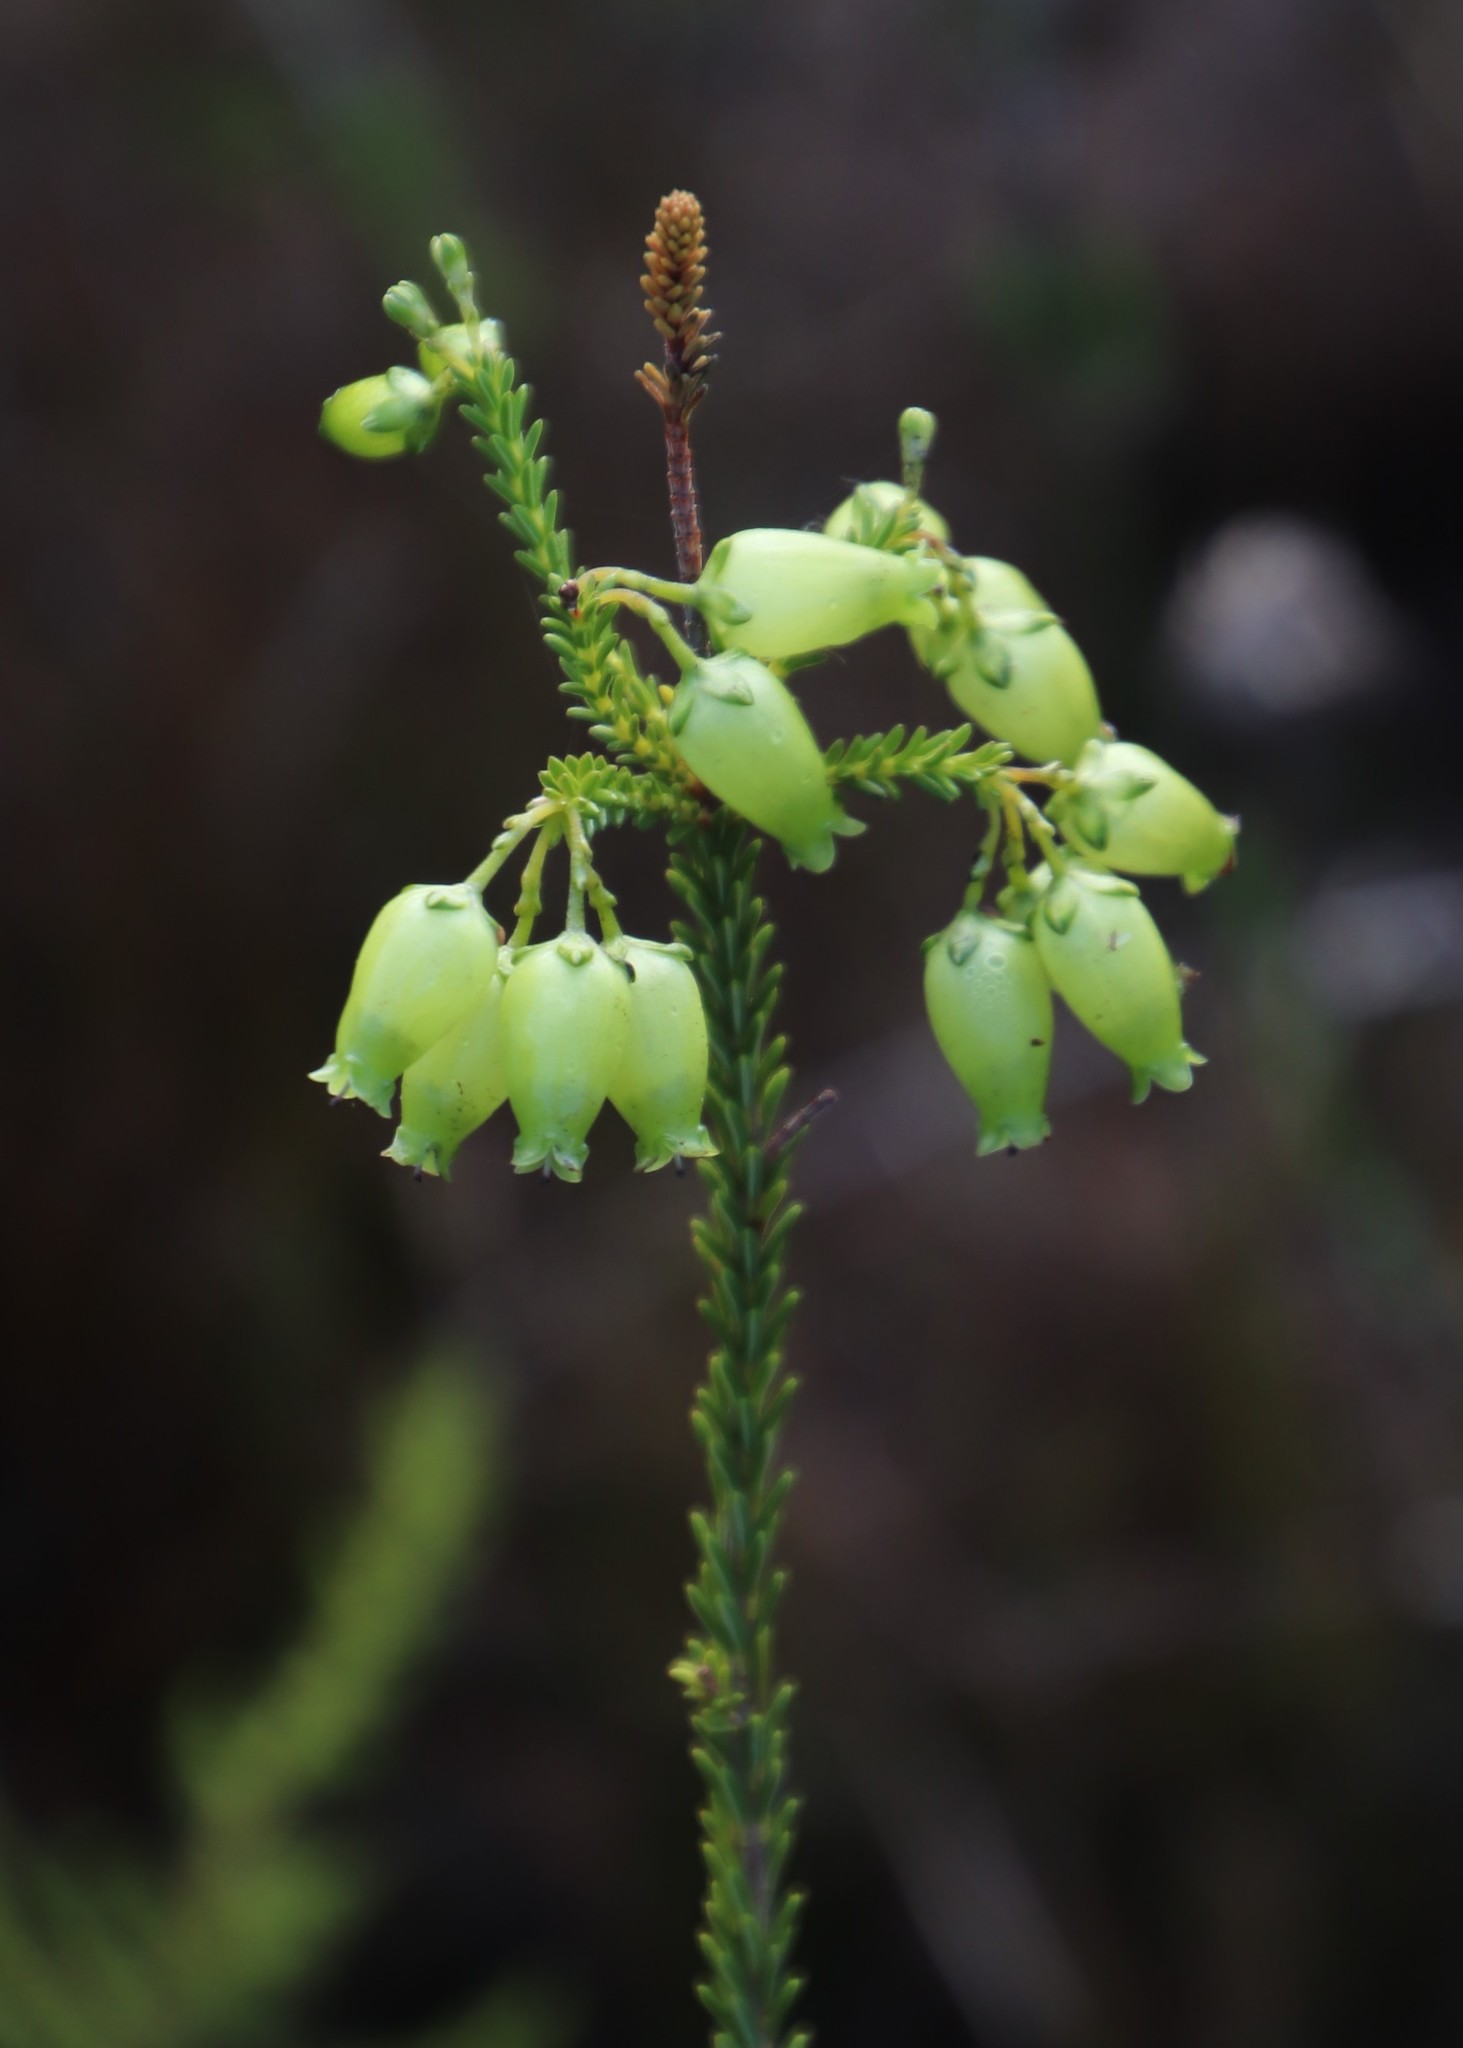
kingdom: Plantae
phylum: Tracheophyta
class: Magnoliopsida
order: Ericales
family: Ericaceae
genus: Erica
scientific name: Erica urna-viridis
